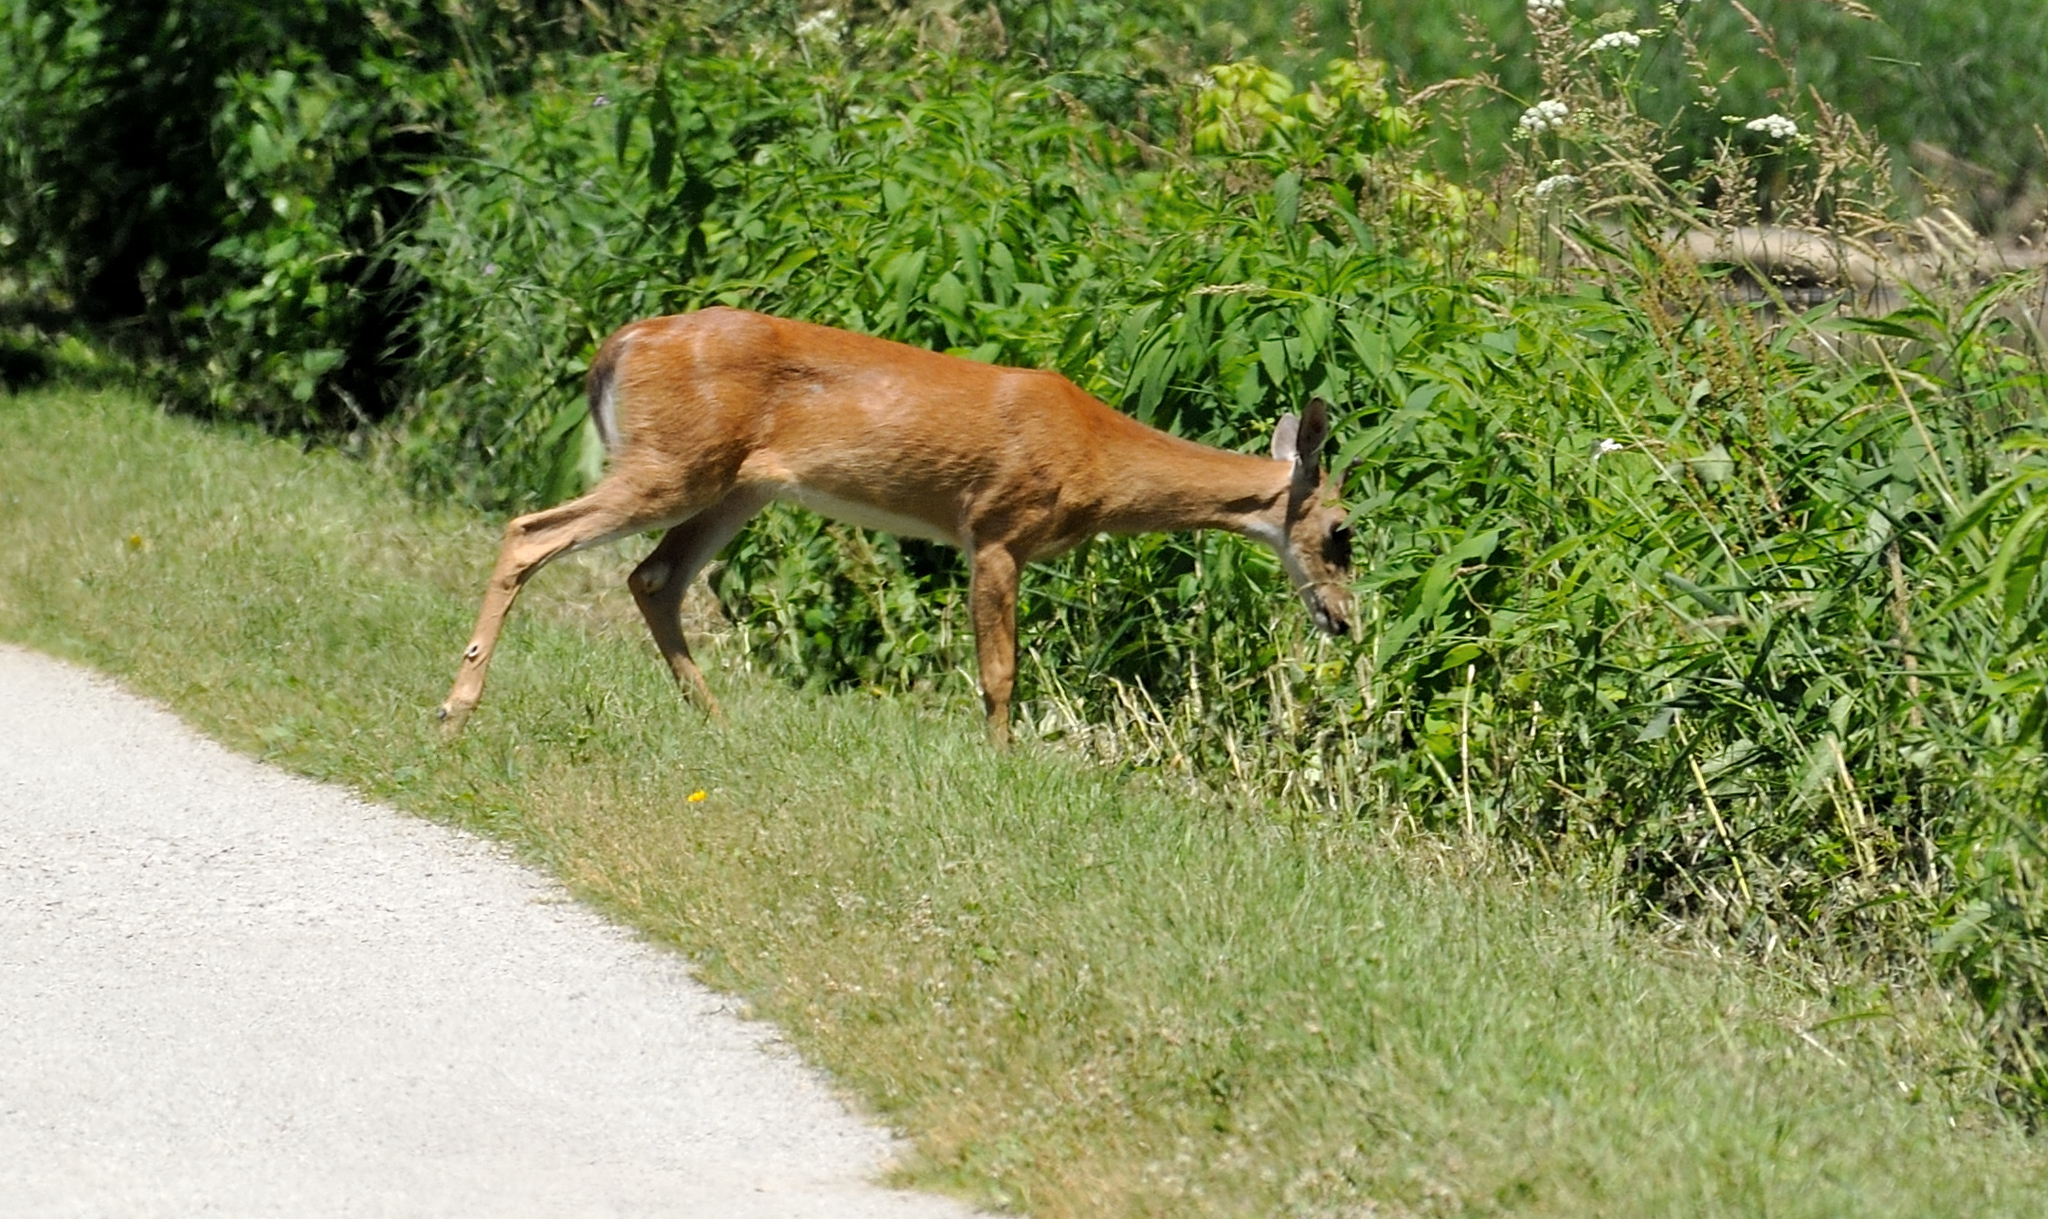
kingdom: Animalia
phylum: Chordata
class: Mammalia
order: Artiodactyla
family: Cervidae
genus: Odocoileus
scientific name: Odocoileus virginianus
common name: White-tailed deer
